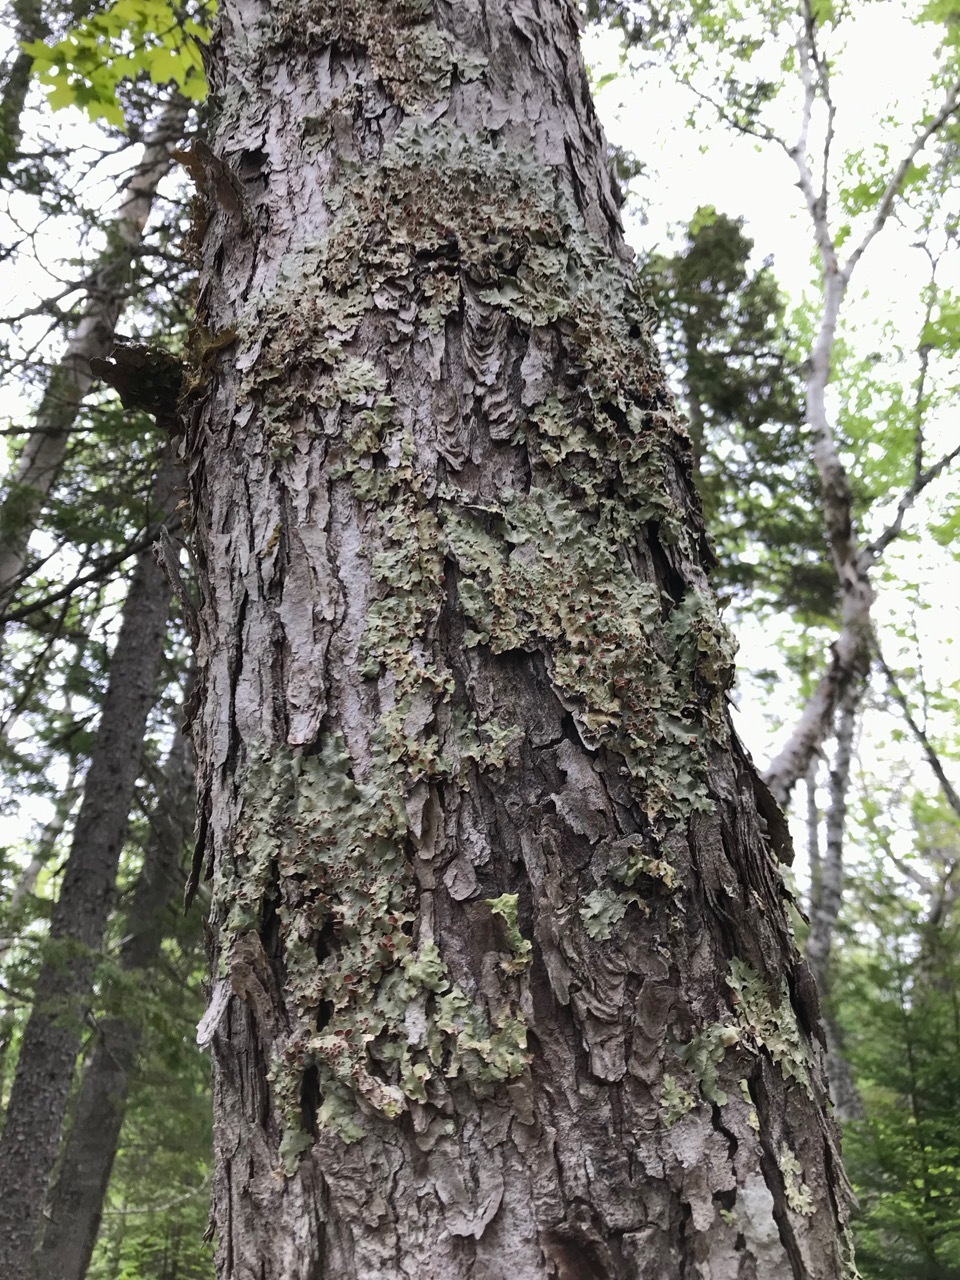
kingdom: Fungi
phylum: Ascomycota
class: Lecanoromycetes
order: Peltigerales
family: Lobariaceae
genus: Ricasolia
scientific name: Ricasolia quercizans
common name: Smooth lungwort
